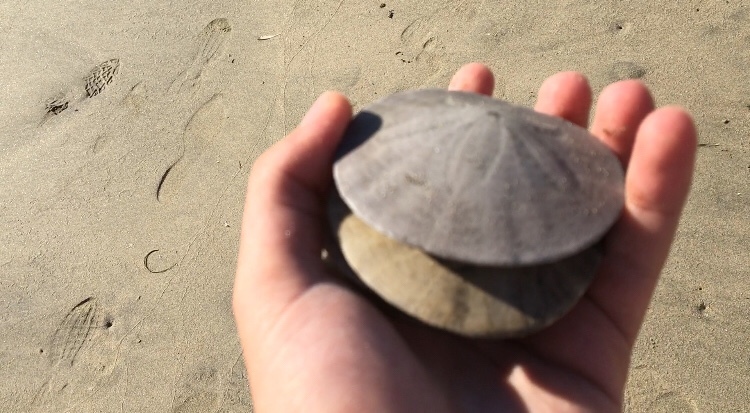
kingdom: Animalia
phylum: Echinodermata
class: Echinoidea
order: Echinolampadacea
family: Dendrasteridae
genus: Dendraster
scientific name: Dendraster excentricus
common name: Eccentric sand dollar sea urchin
